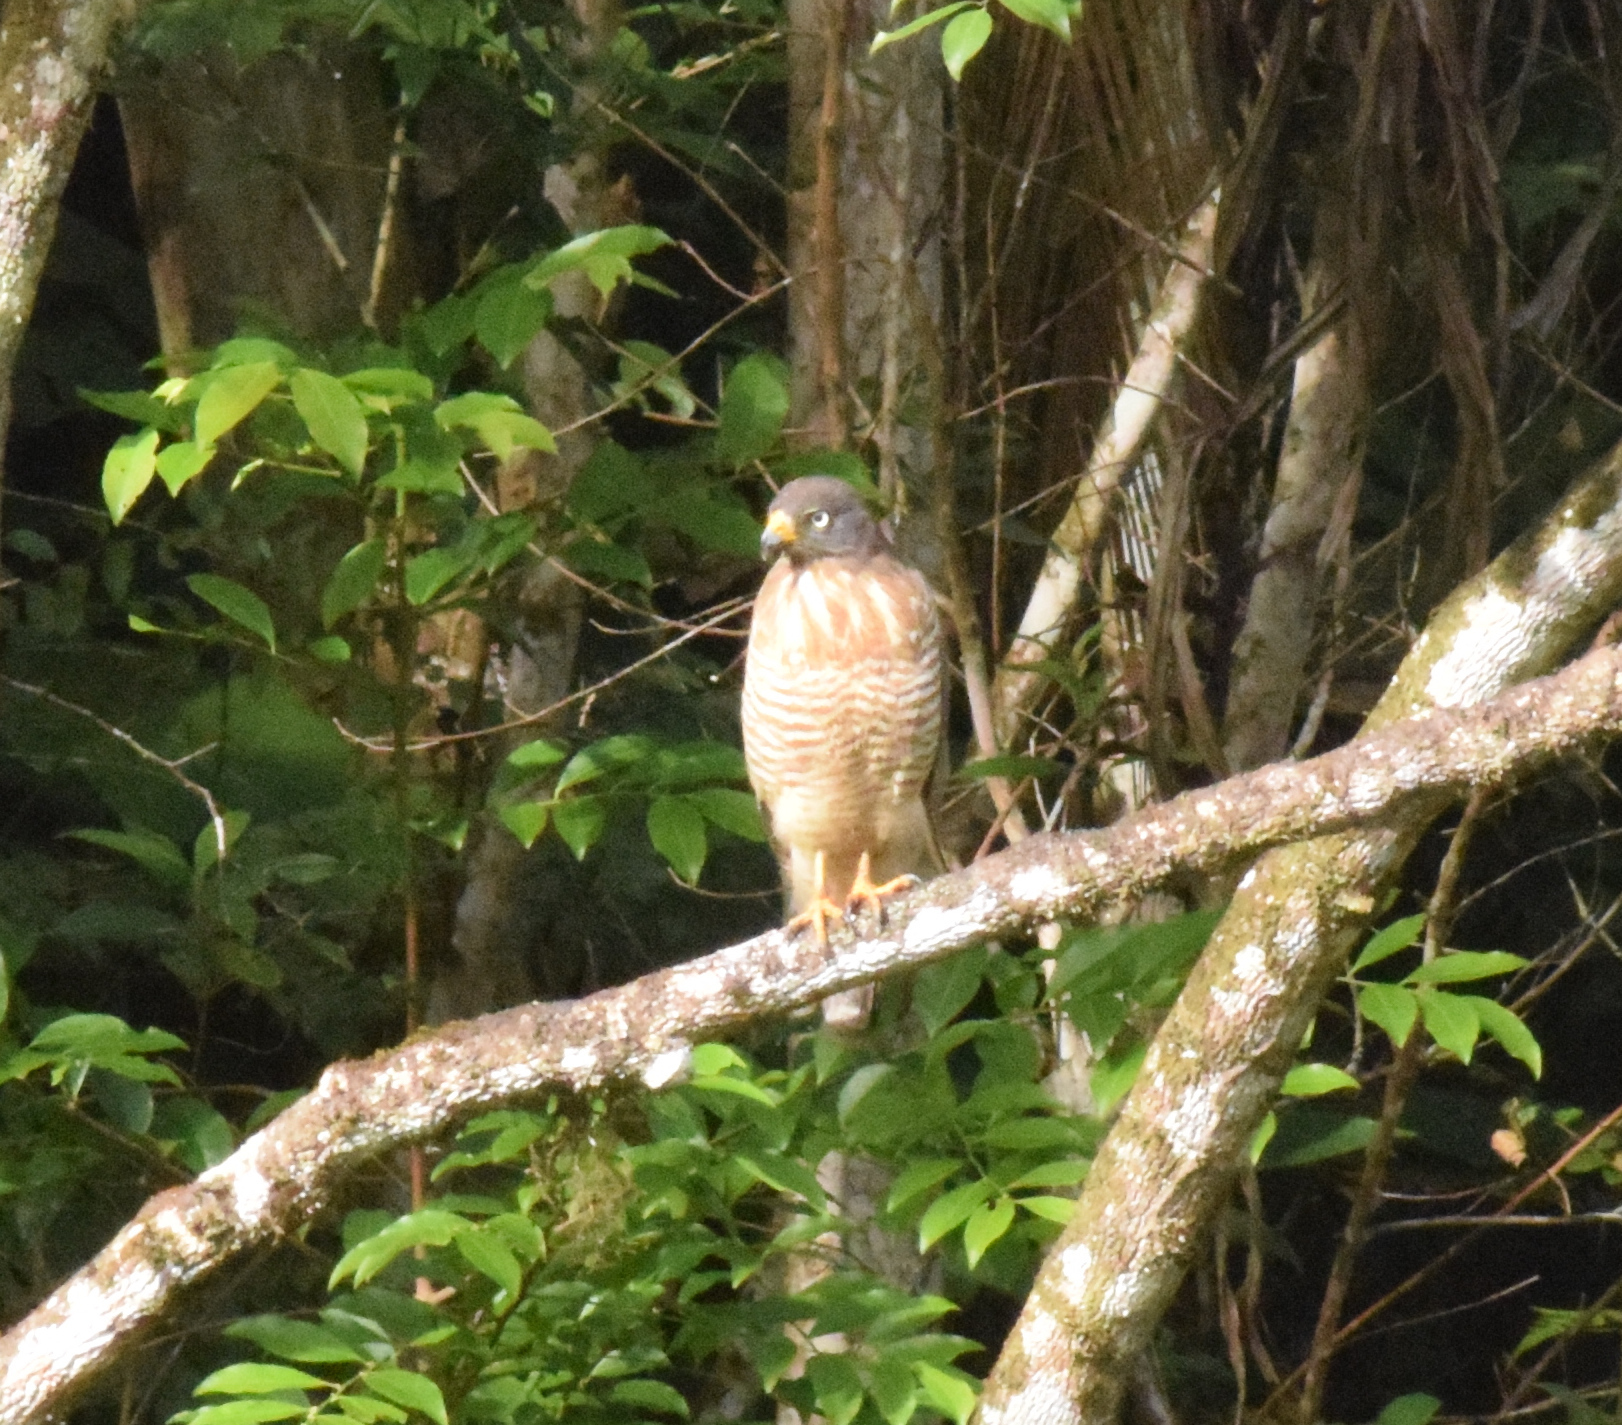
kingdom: Animalia
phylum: Chordata
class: Aves
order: Accipitriformes
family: Accipitridae
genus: Rupornis
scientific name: Rupornis magnirostris
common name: Roadside hawk
